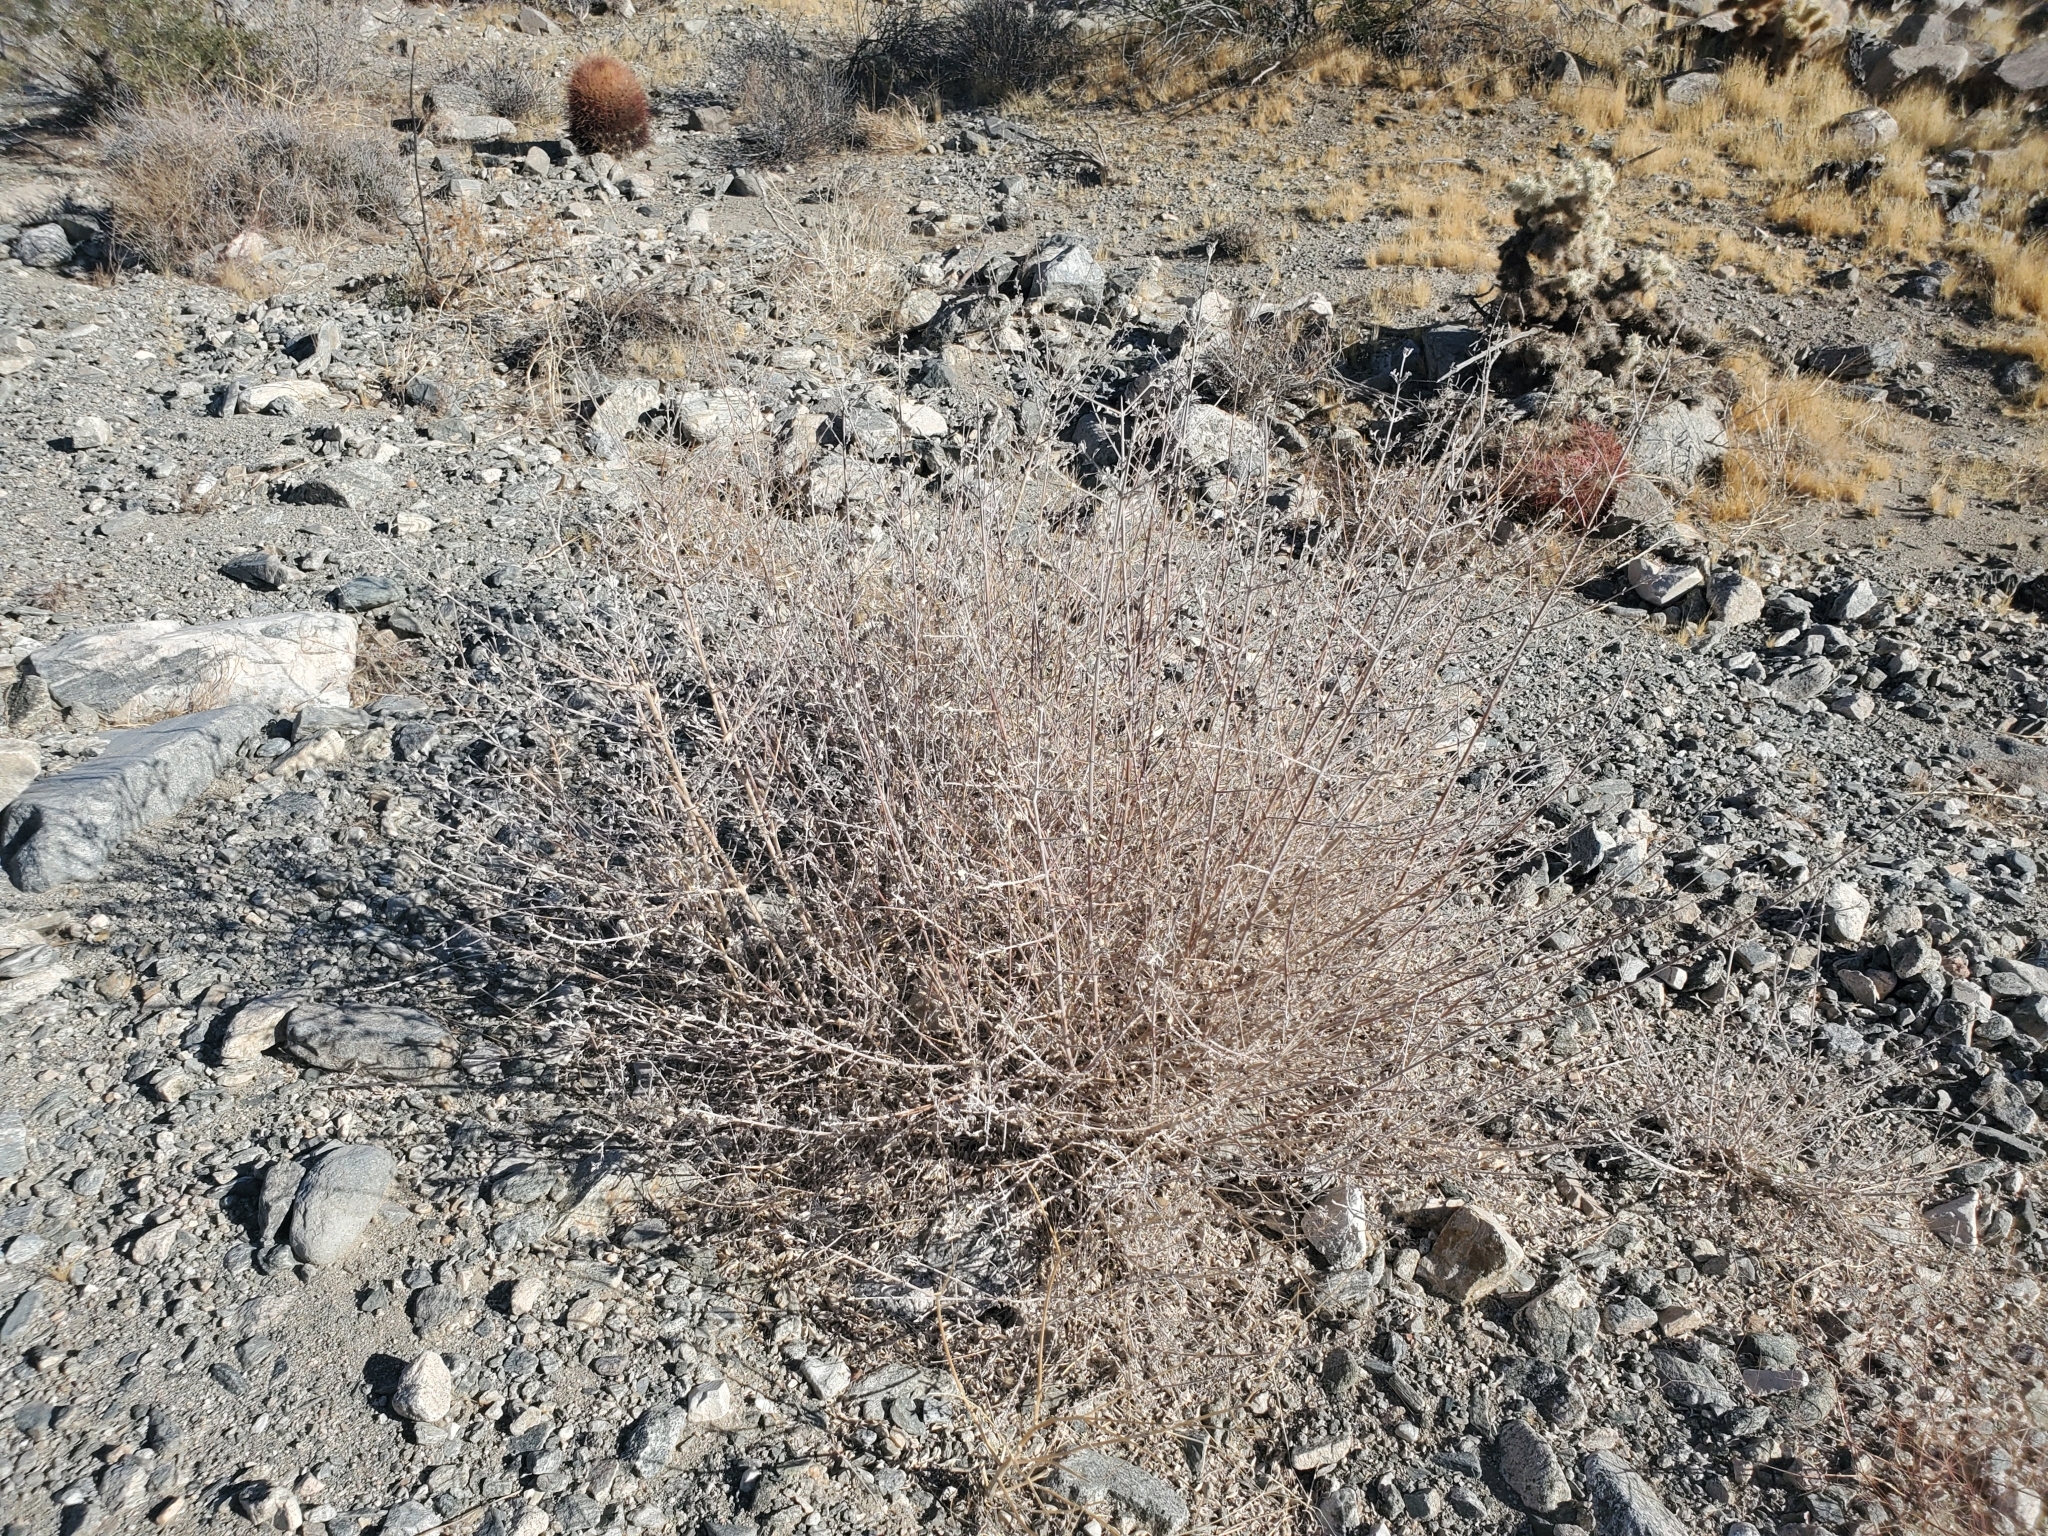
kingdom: Plantae
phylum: Tracheophyta
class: Magnoliopsida
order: Lamiales
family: Lamiaceae
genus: Condea
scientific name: Condea emoryi
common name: Chia
